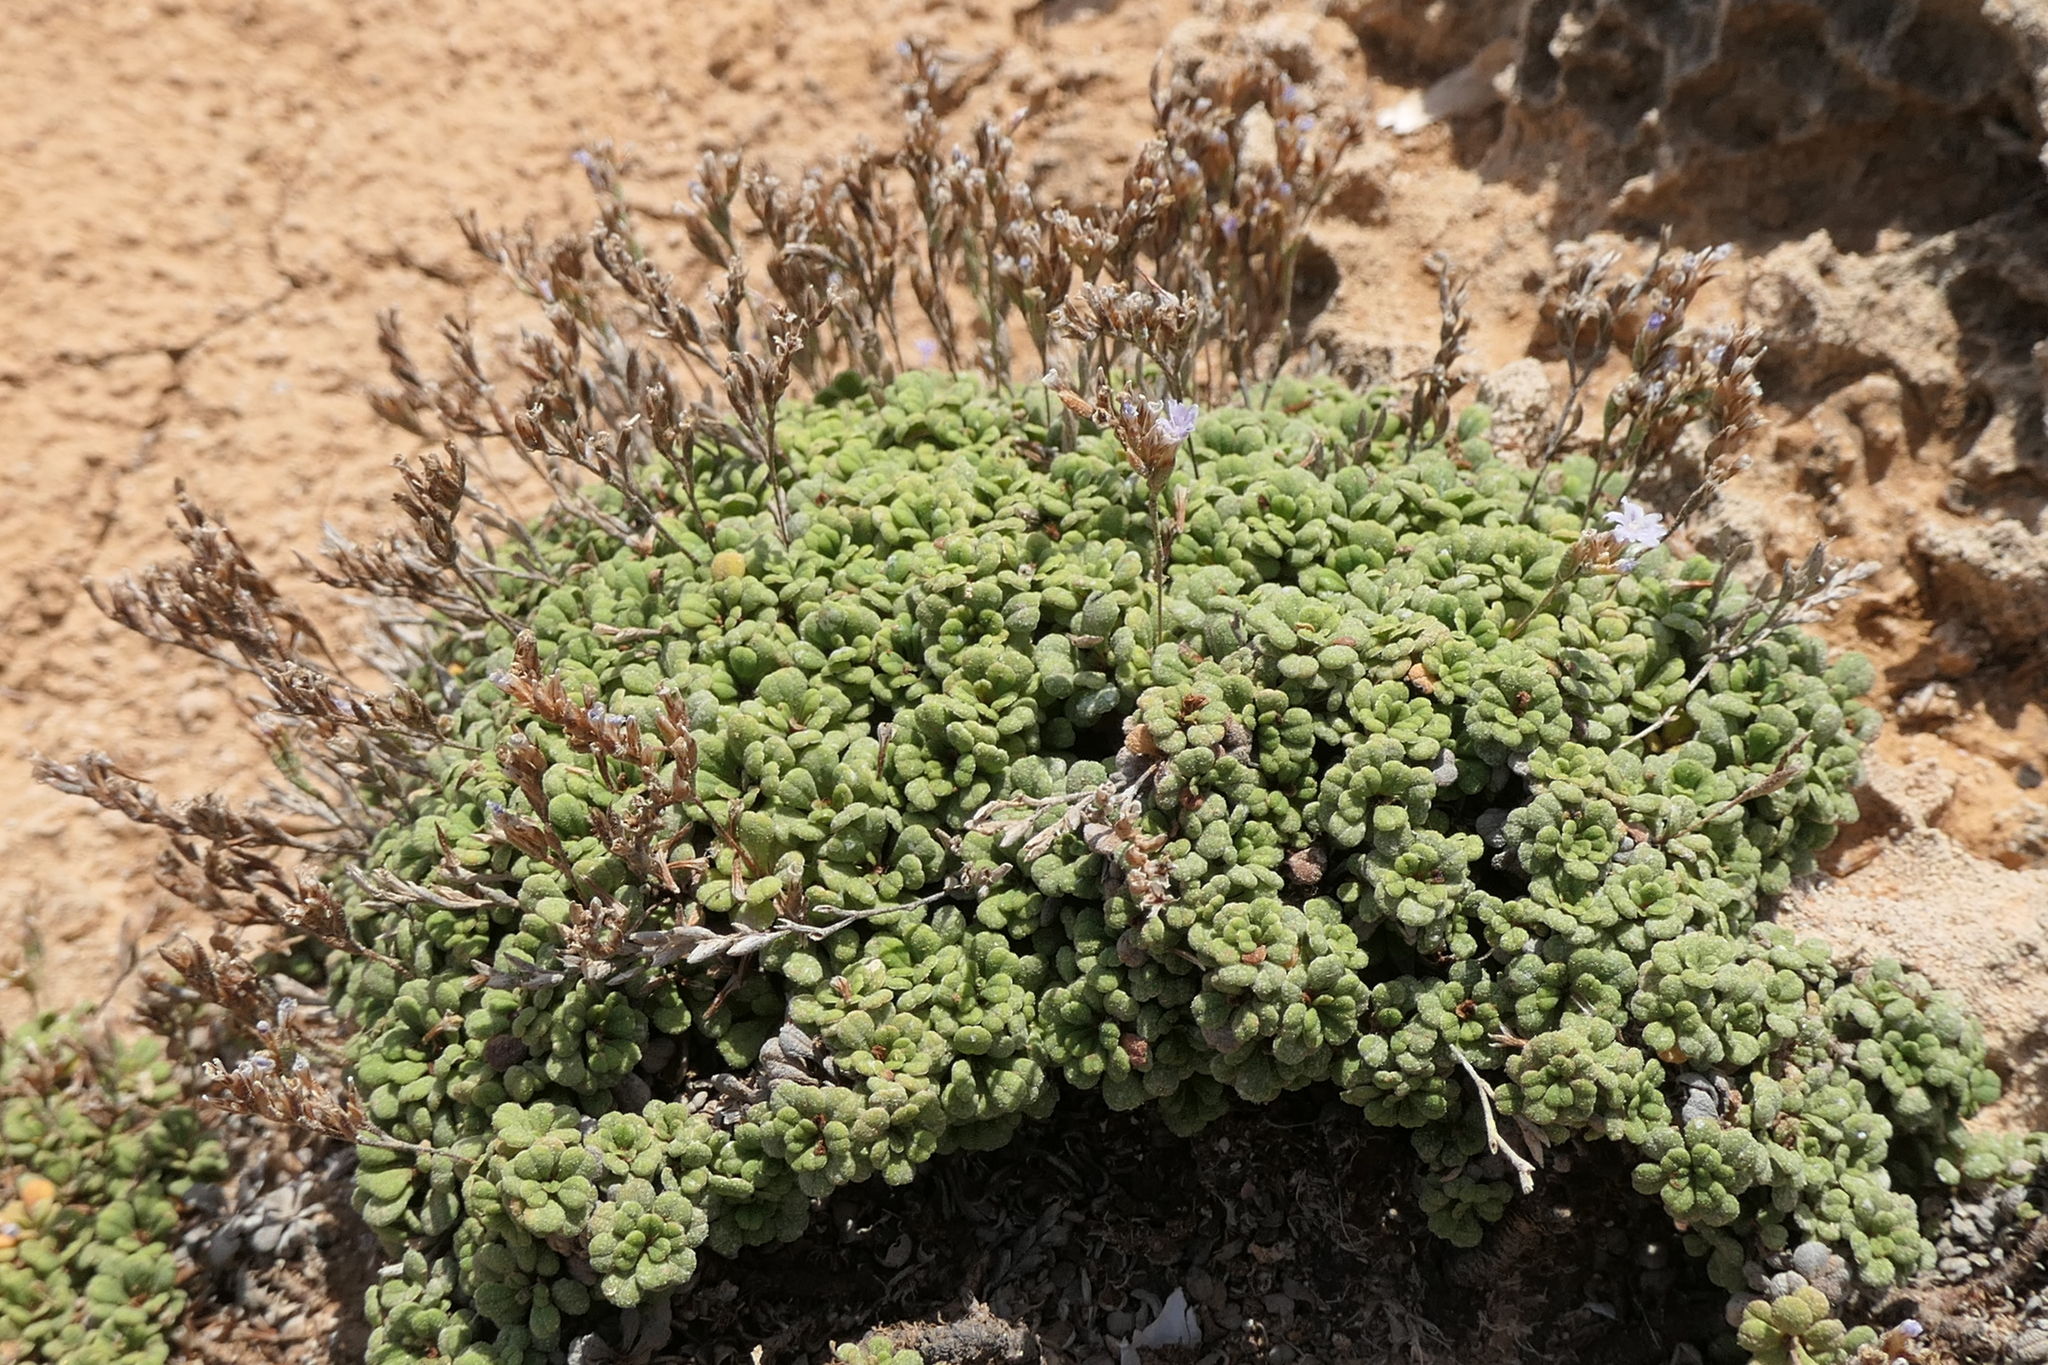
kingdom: Plantae
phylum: Tracheophyta
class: Magnoliopsida
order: Caryophyllales
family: Plumbaginaceae
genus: Limonium
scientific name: Limonium minutum
